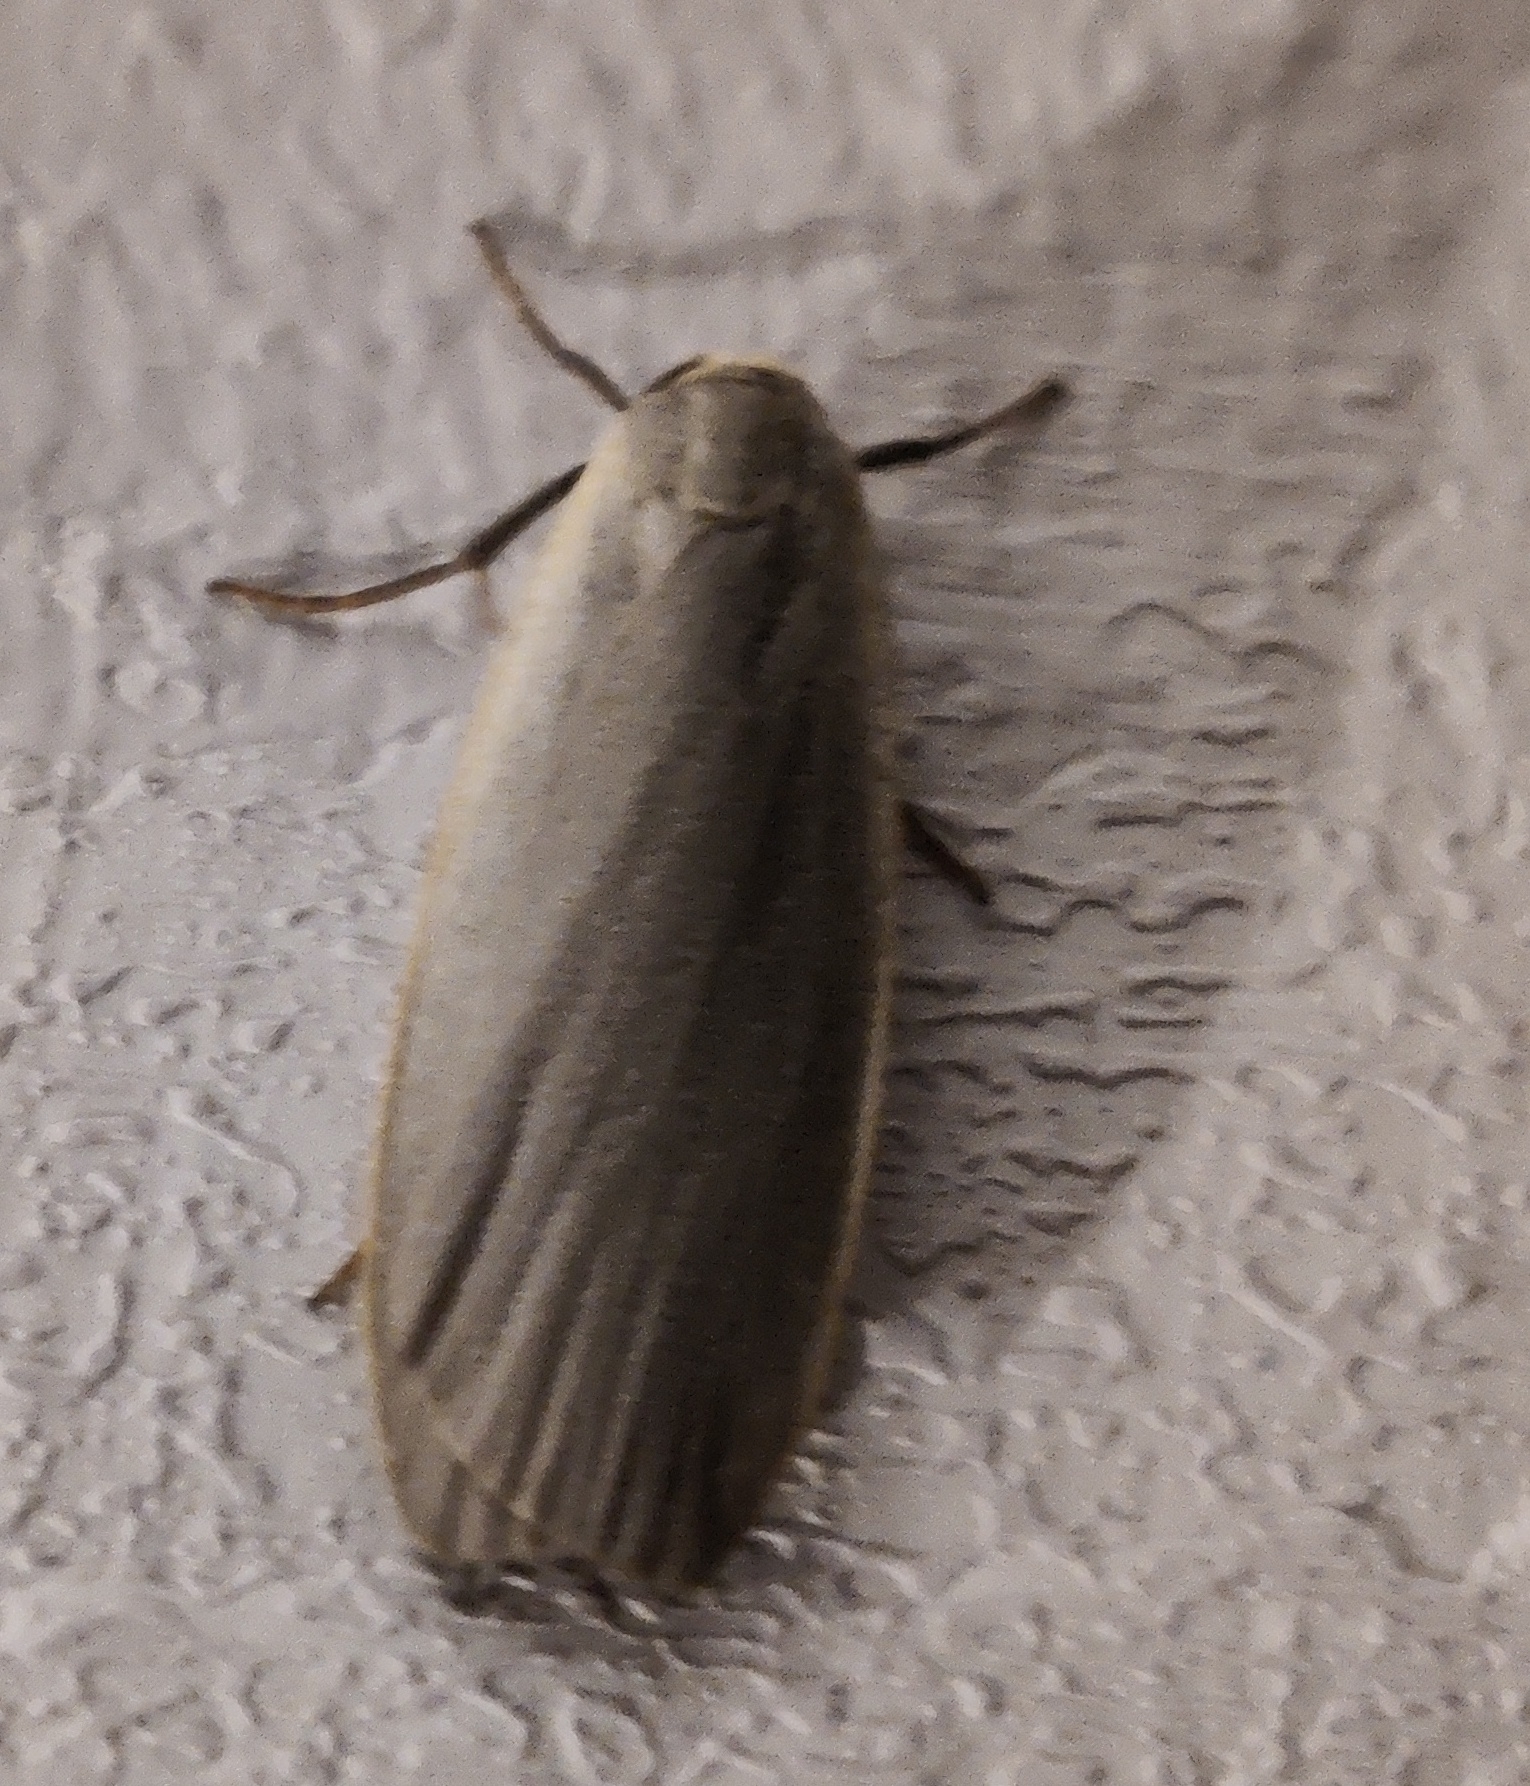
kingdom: Animalia
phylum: Arthropoda
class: Insecta
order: Lepidoptera
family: Erebidae
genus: Collita
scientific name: Collita griseola
